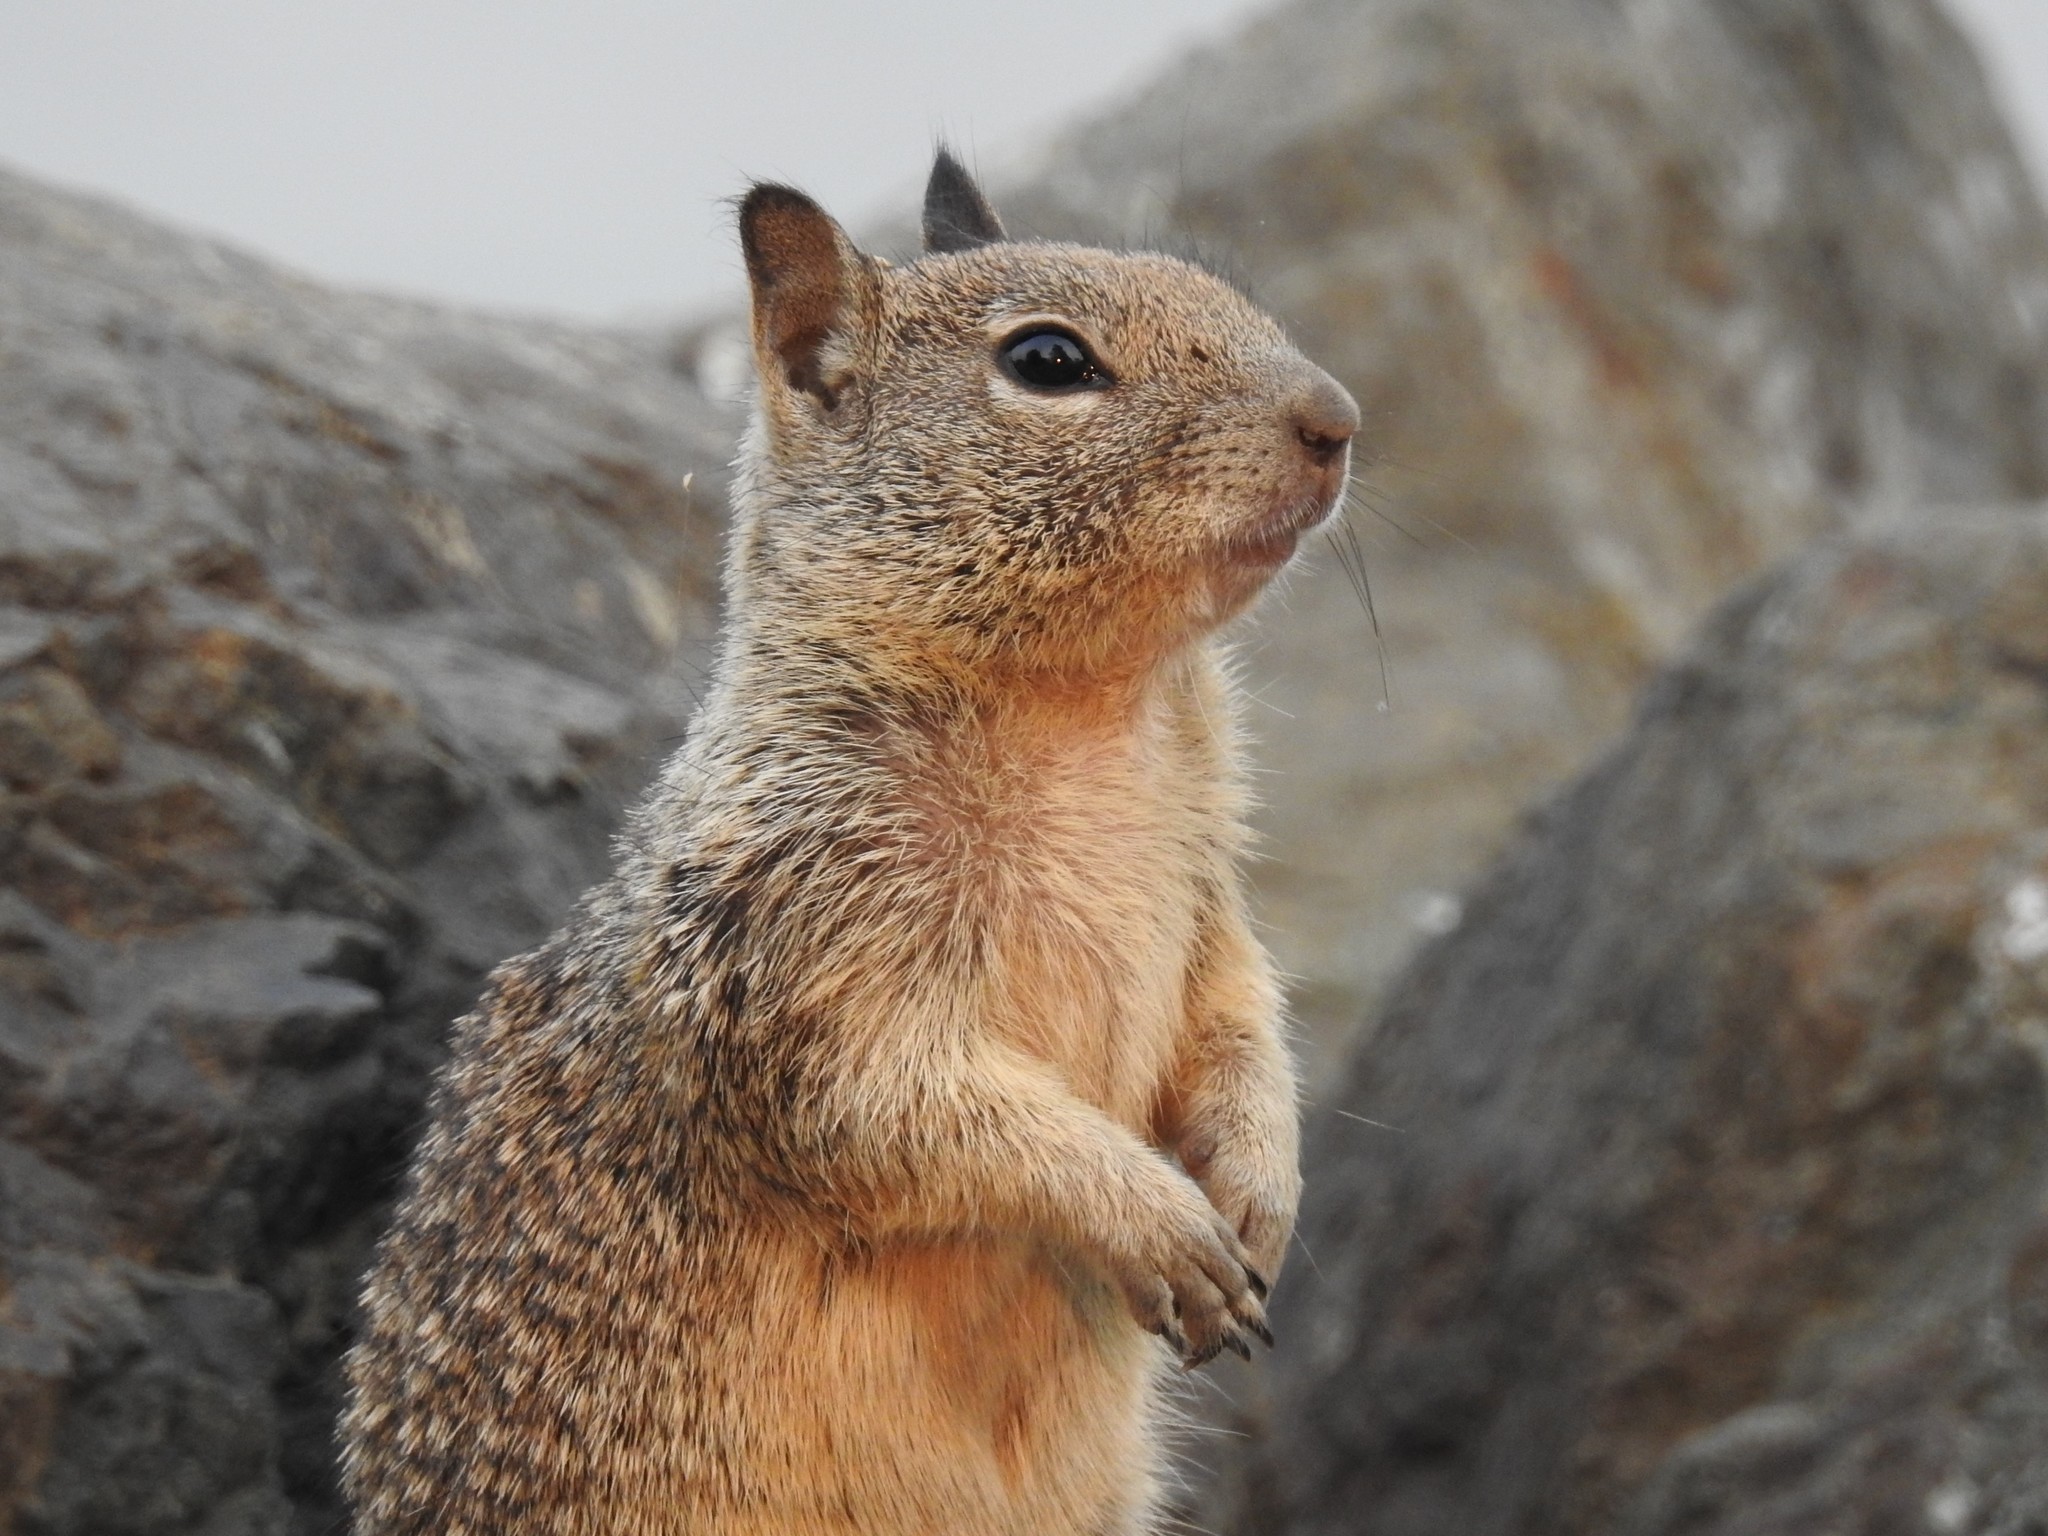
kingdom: Animalia
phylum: Chordata
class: Mammalia
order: Rodentia
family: Sciuridae
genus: Otospermophilus
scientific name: Otospermophilus beecheyi
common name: California ground squirrel
